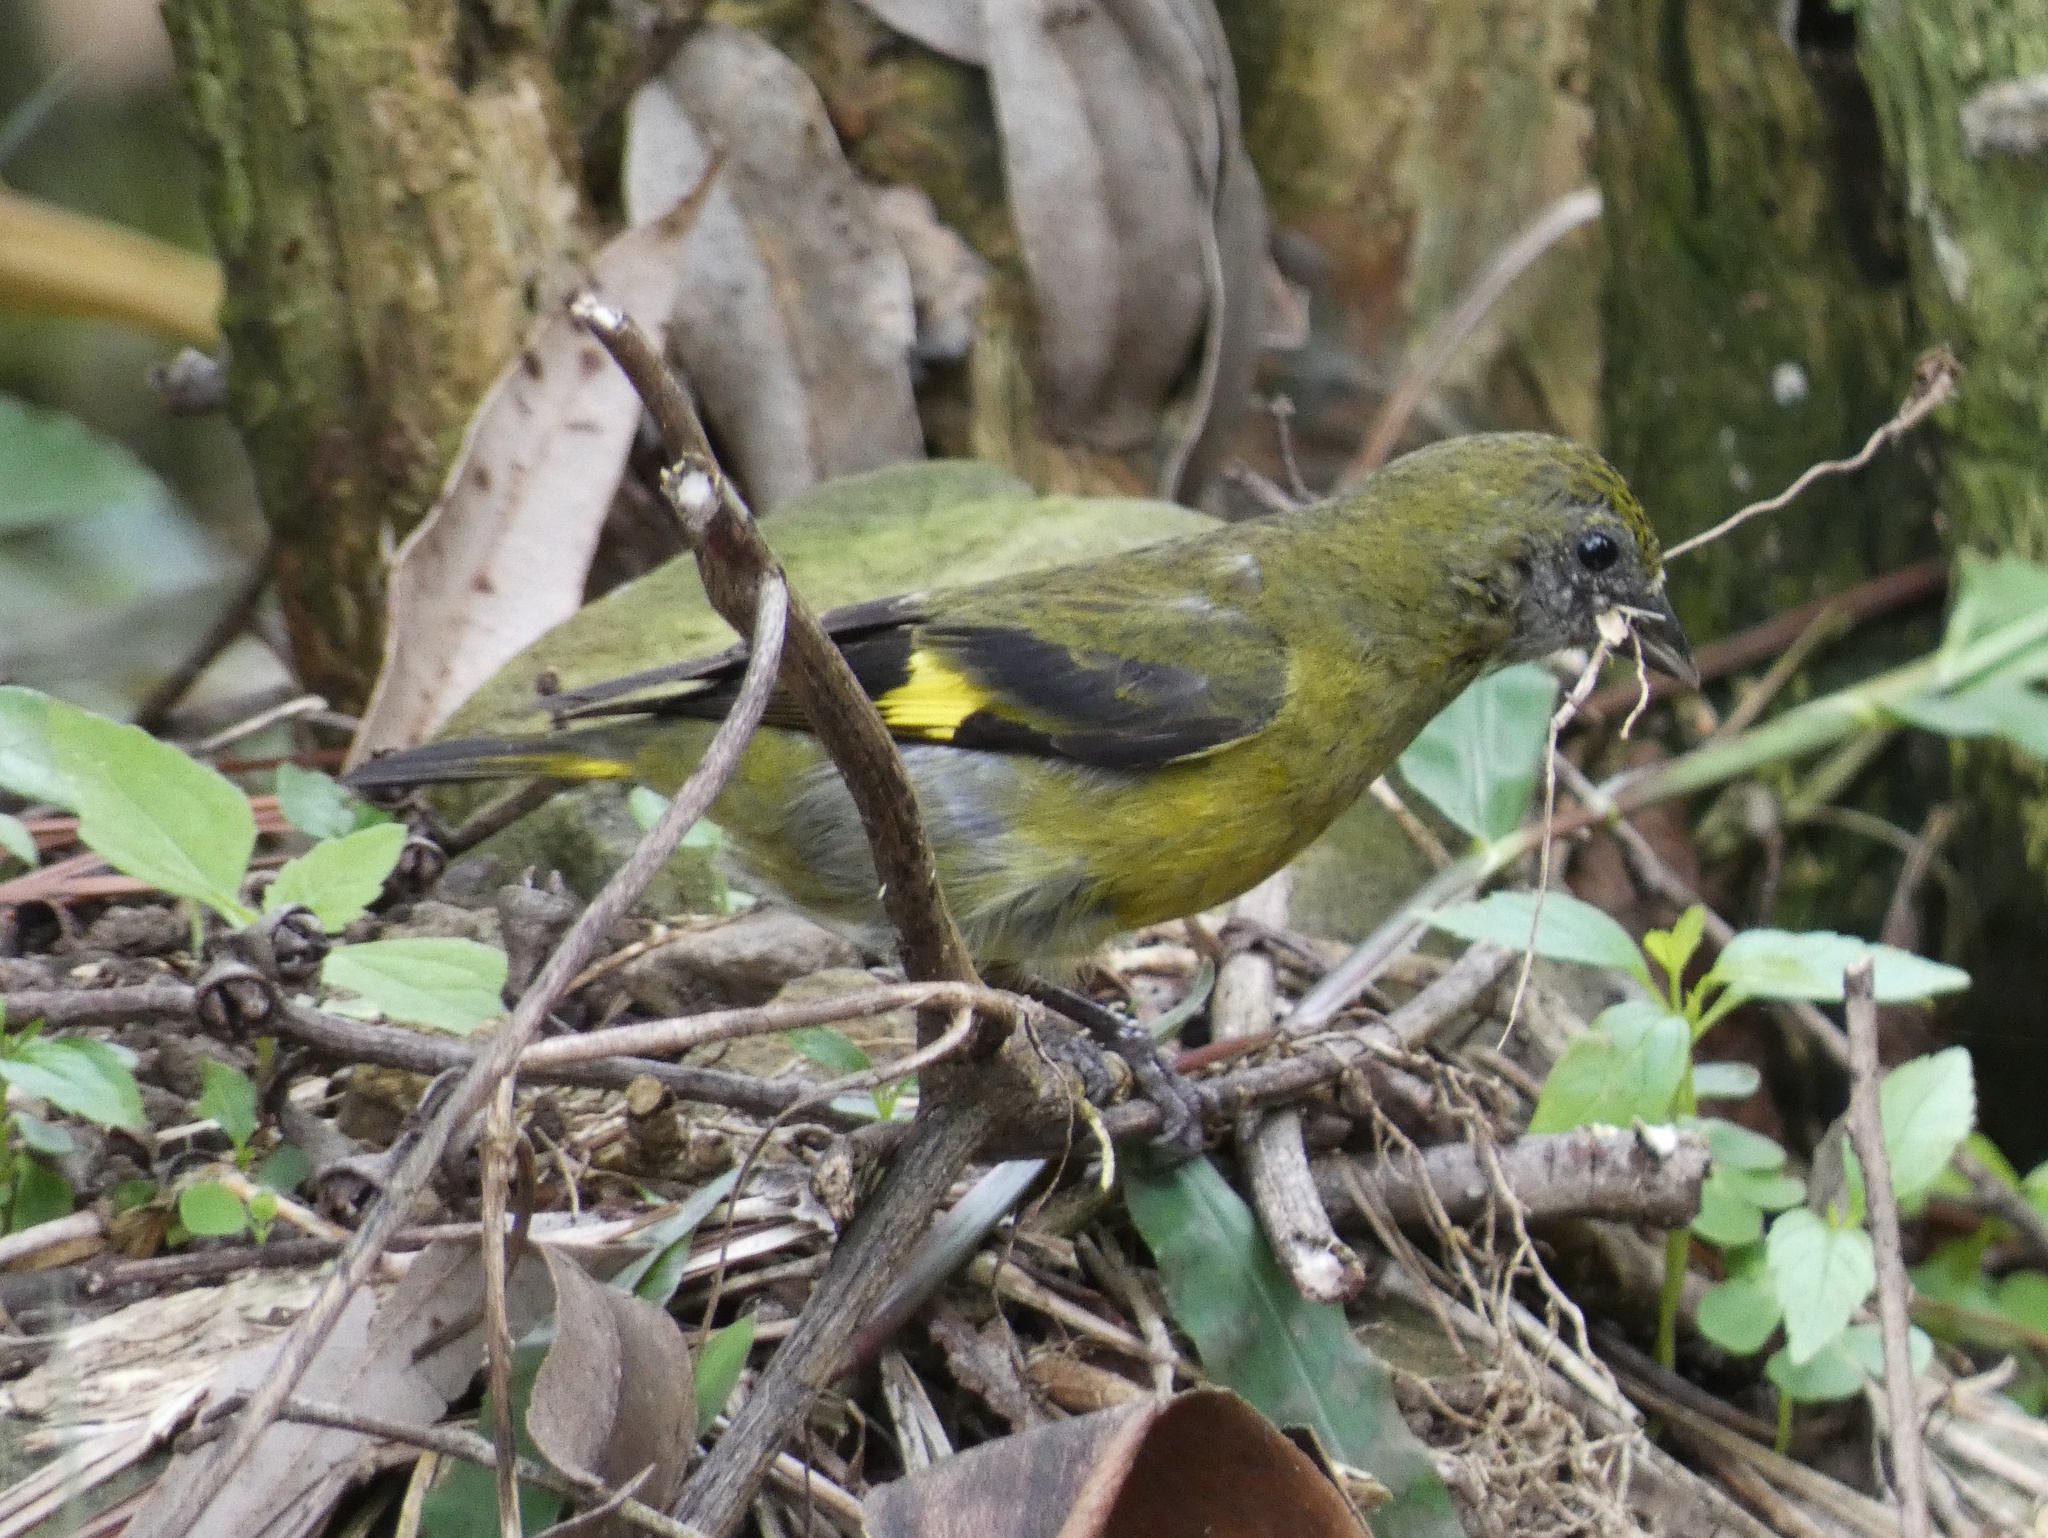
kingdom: Animalia
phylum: Chordata
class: Aves
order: Passeriformes
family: Fringillidae
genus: Spinus
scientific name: Spinus xanthogastrus
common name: Yellow-bellied siskin
